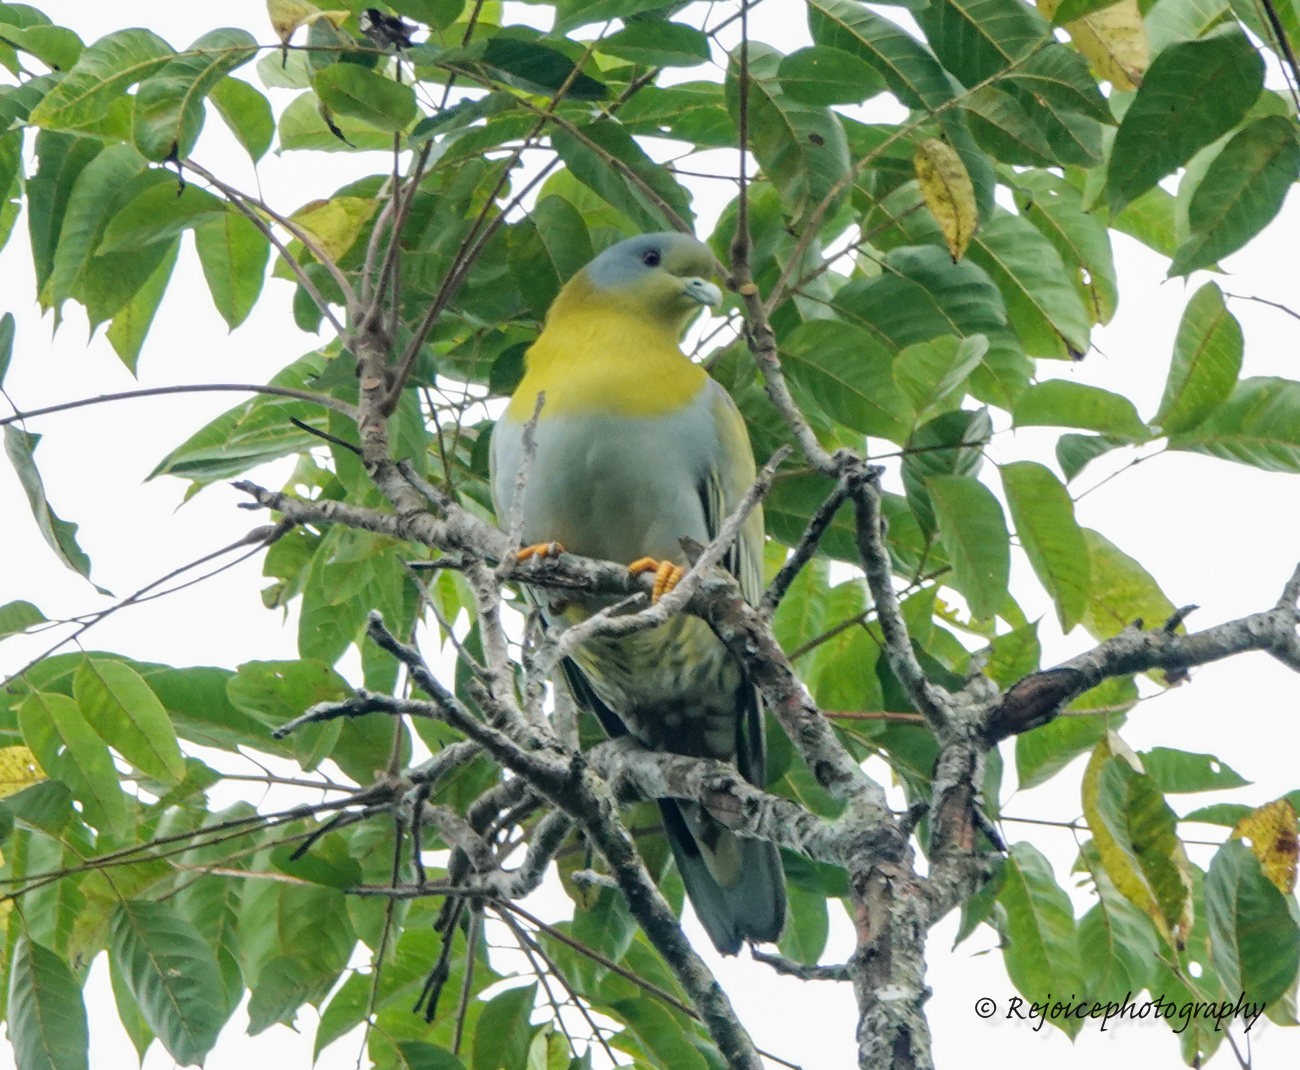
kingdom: Animalia
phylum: Chordata
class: Aves
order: Columbiformes
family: Columbidae
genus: Treron
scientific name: Treron phoenicopterus
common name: Yellow-footed green pigeon
